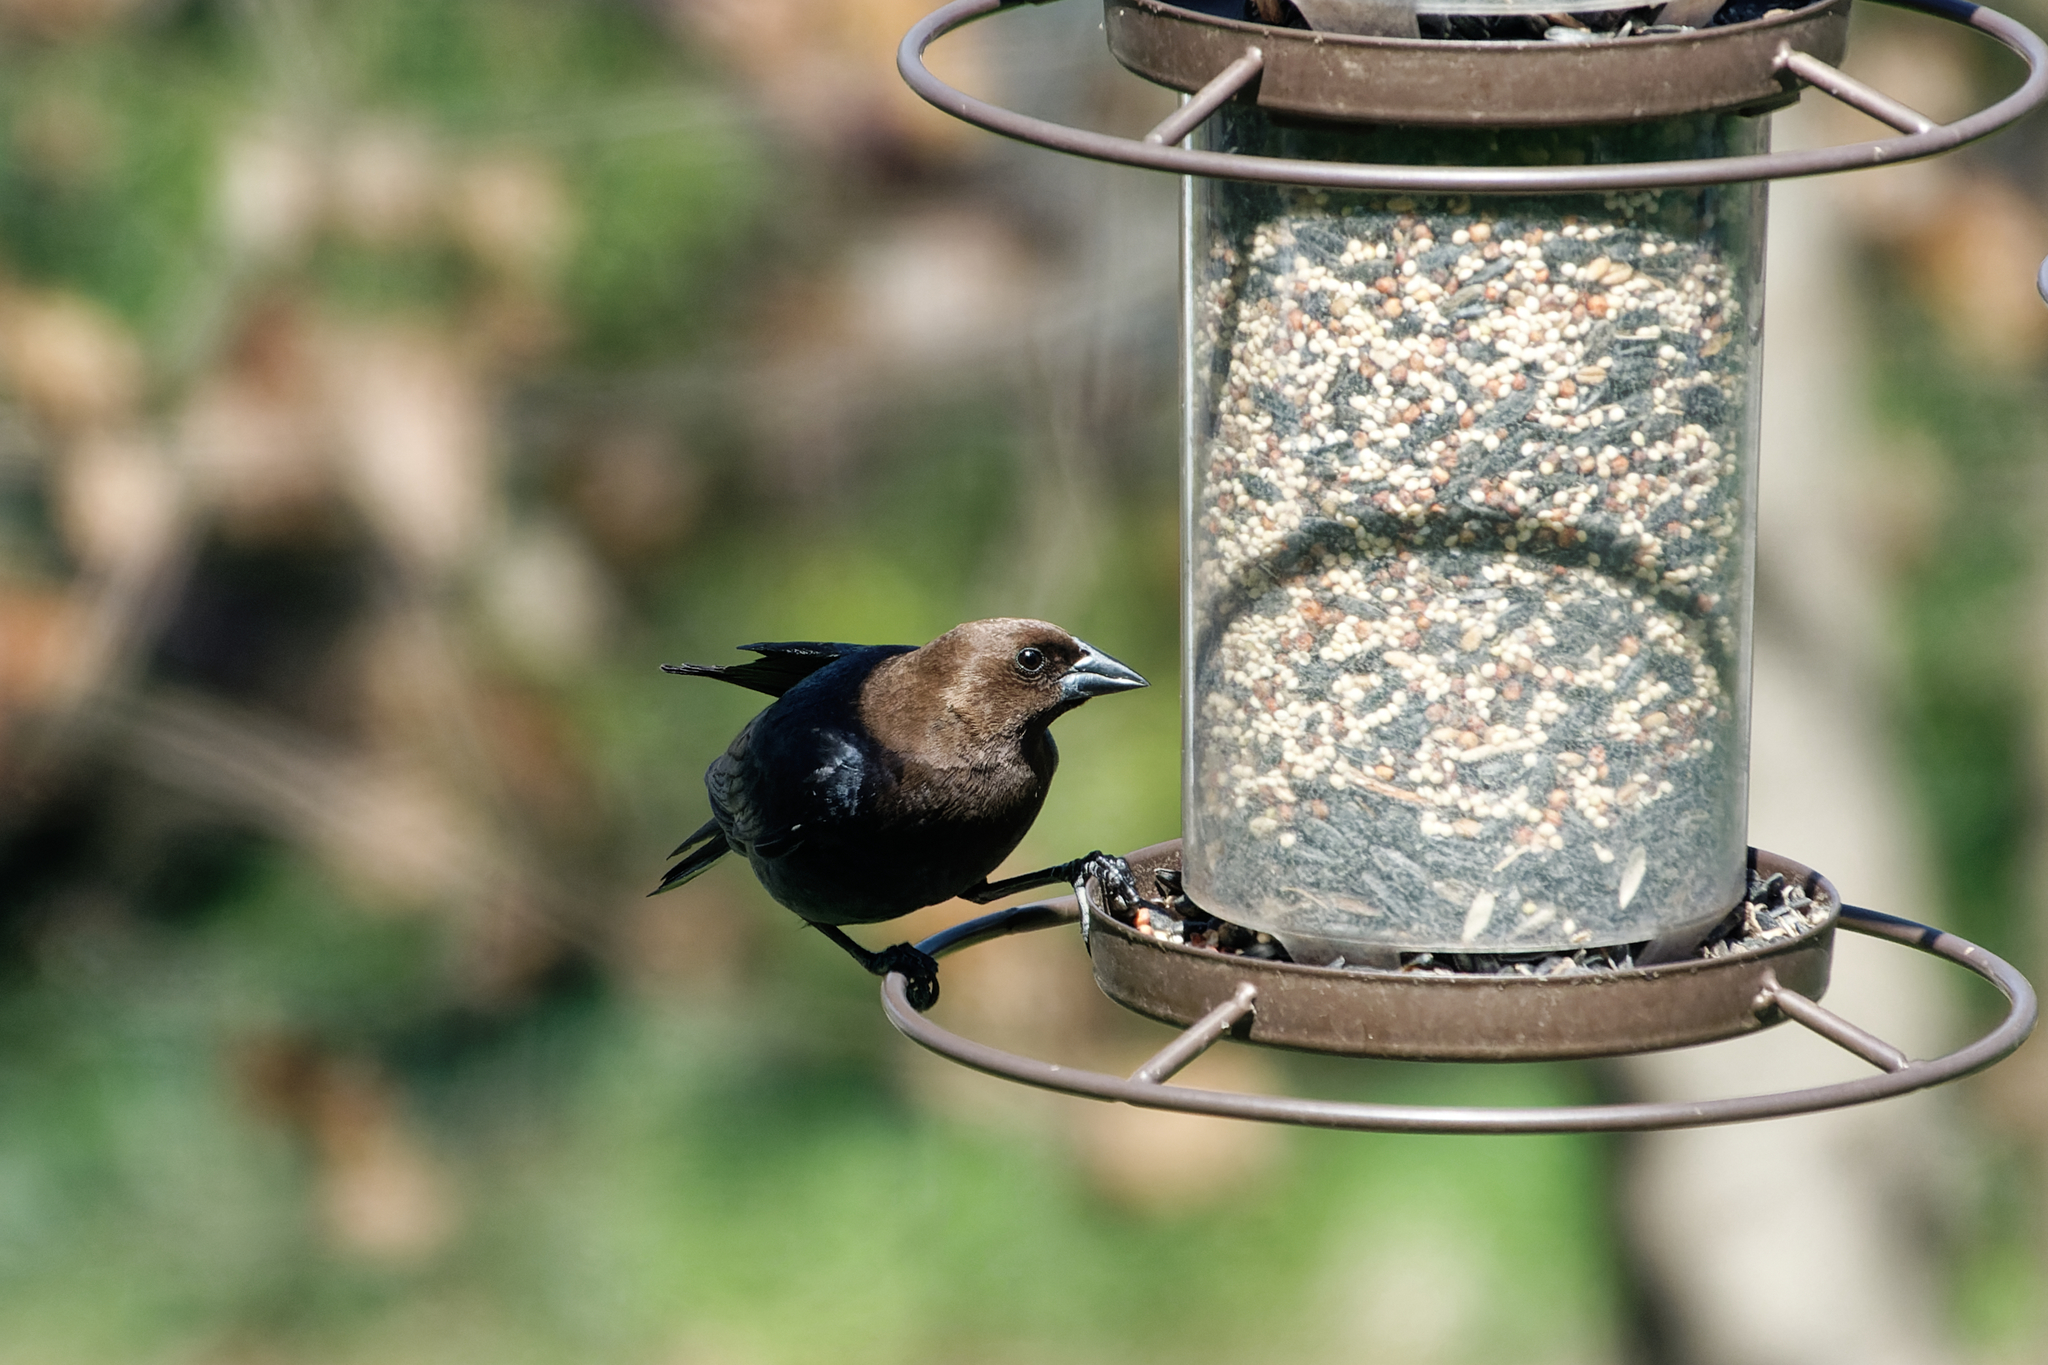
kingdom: Animalia
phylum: Chordata
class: Aves
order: Passeriformes
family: Icteridae
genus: Molothrus
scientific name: Molothrus ater
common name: Brown-headed cowbird
